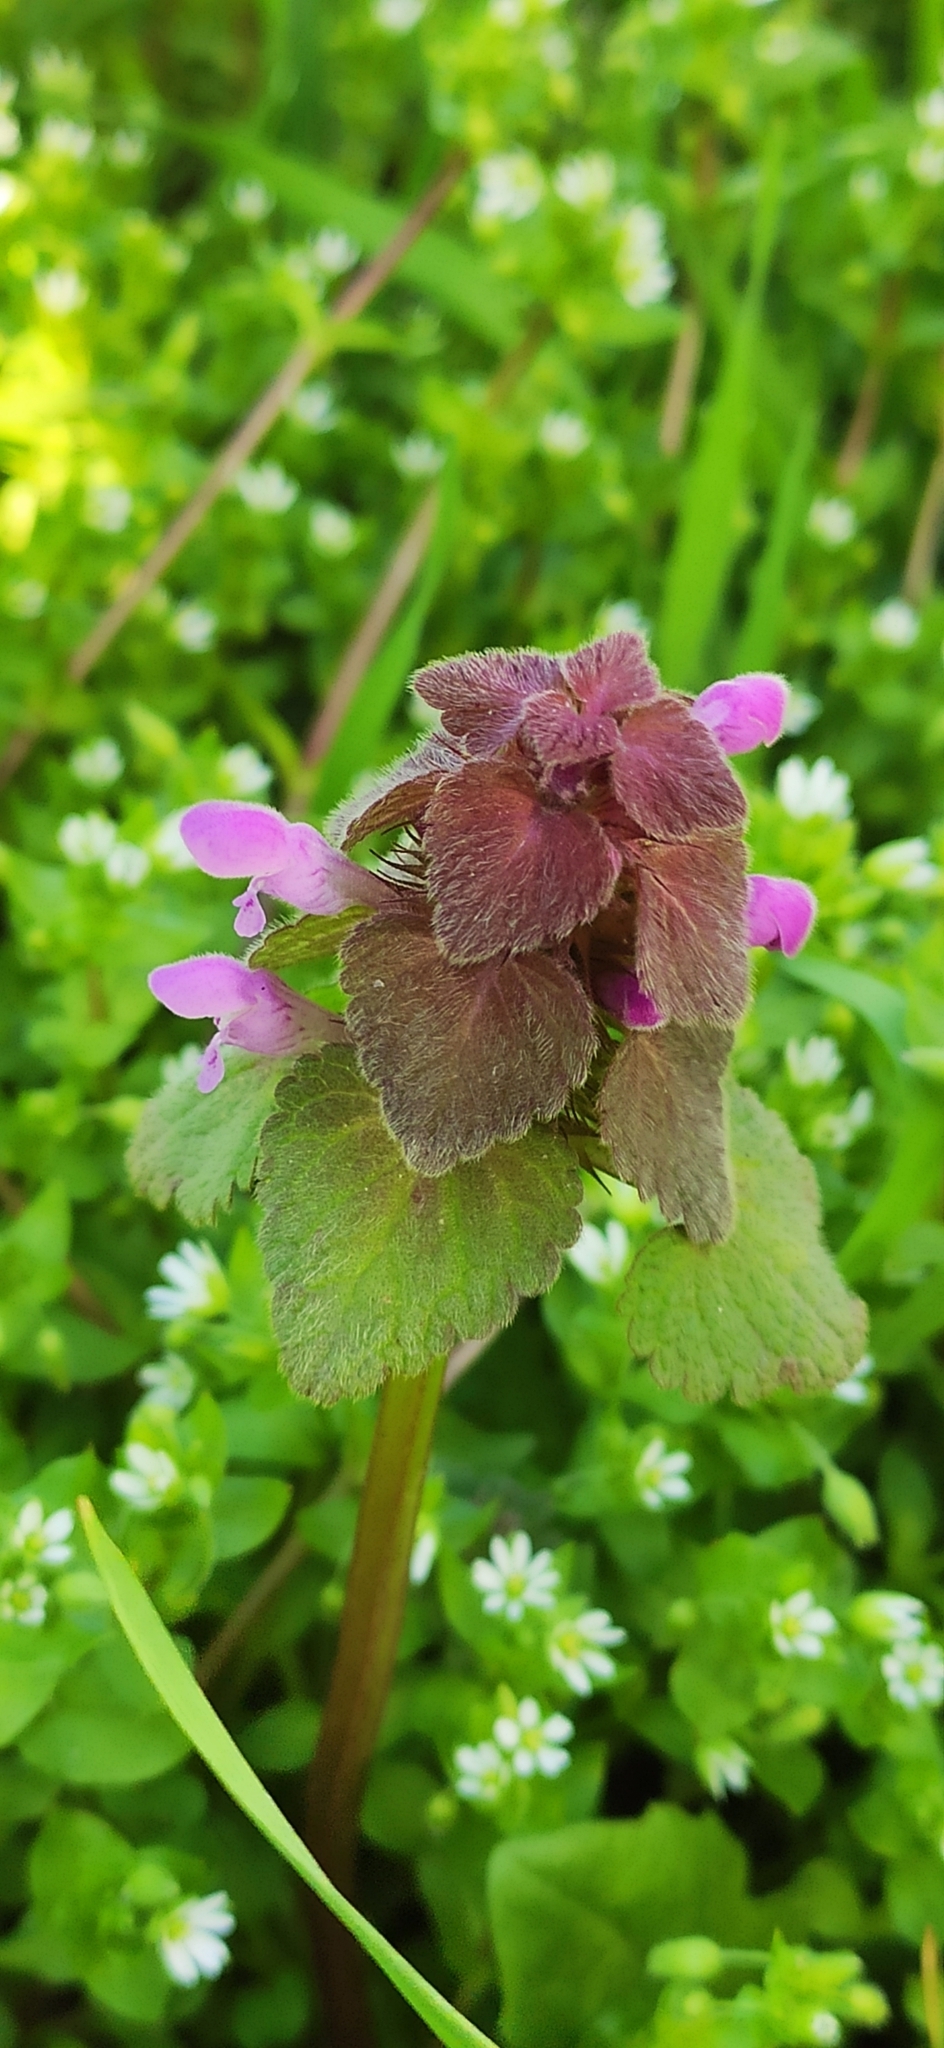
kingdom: Plantae
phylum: Tracheophyta
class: Magnoliopsida
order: Lamiales
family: Lamiaceae
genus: Lamium
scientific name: Lamium purpureum
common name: Red dead-nettle
